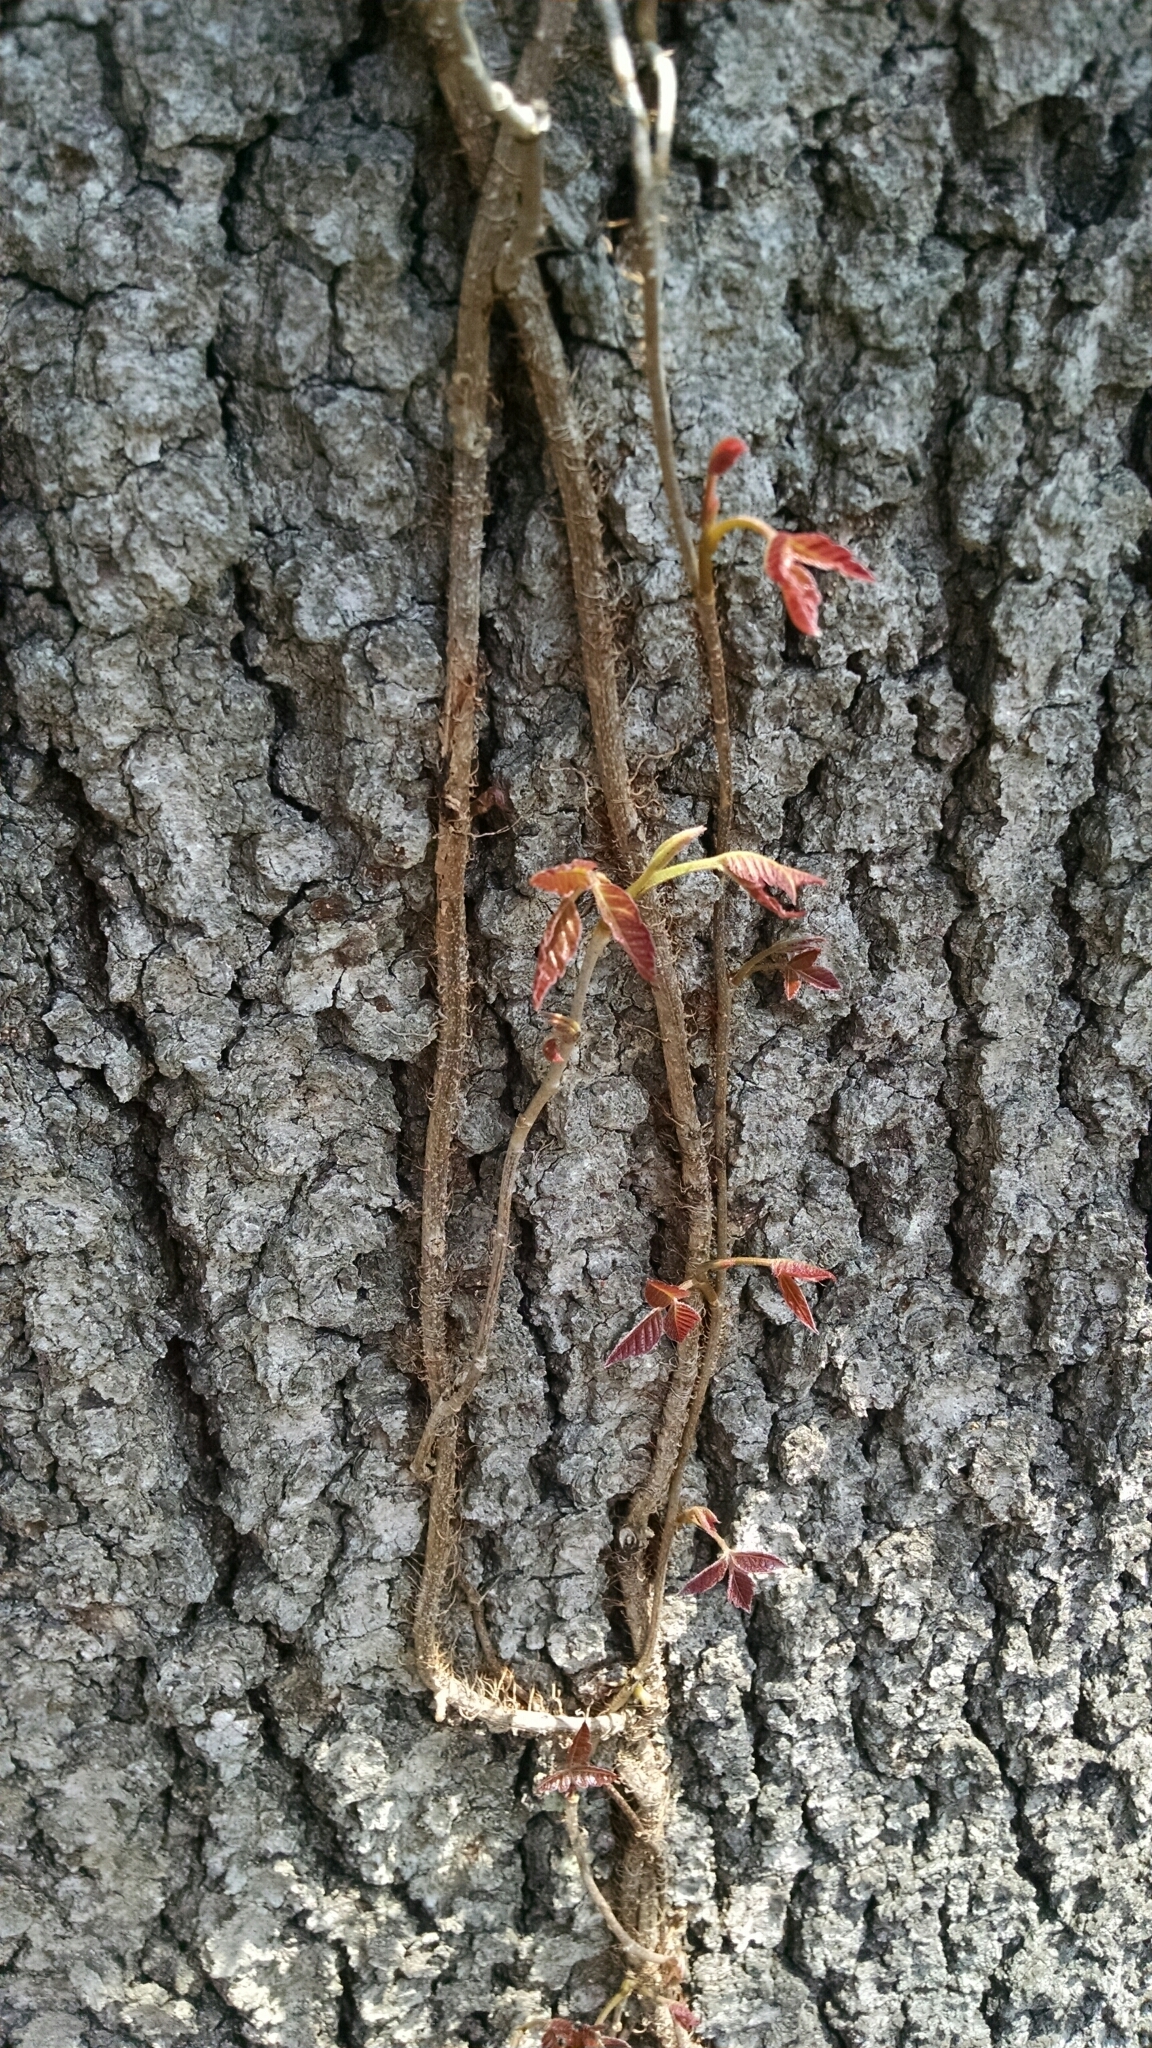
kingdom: Plantae
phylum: Tracheophyta
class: Magnoliopsida
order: Sapindales
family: Anacardiaceae
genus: Toxicodendron
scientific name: Toxicodendron radicans
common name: Poison ivy
